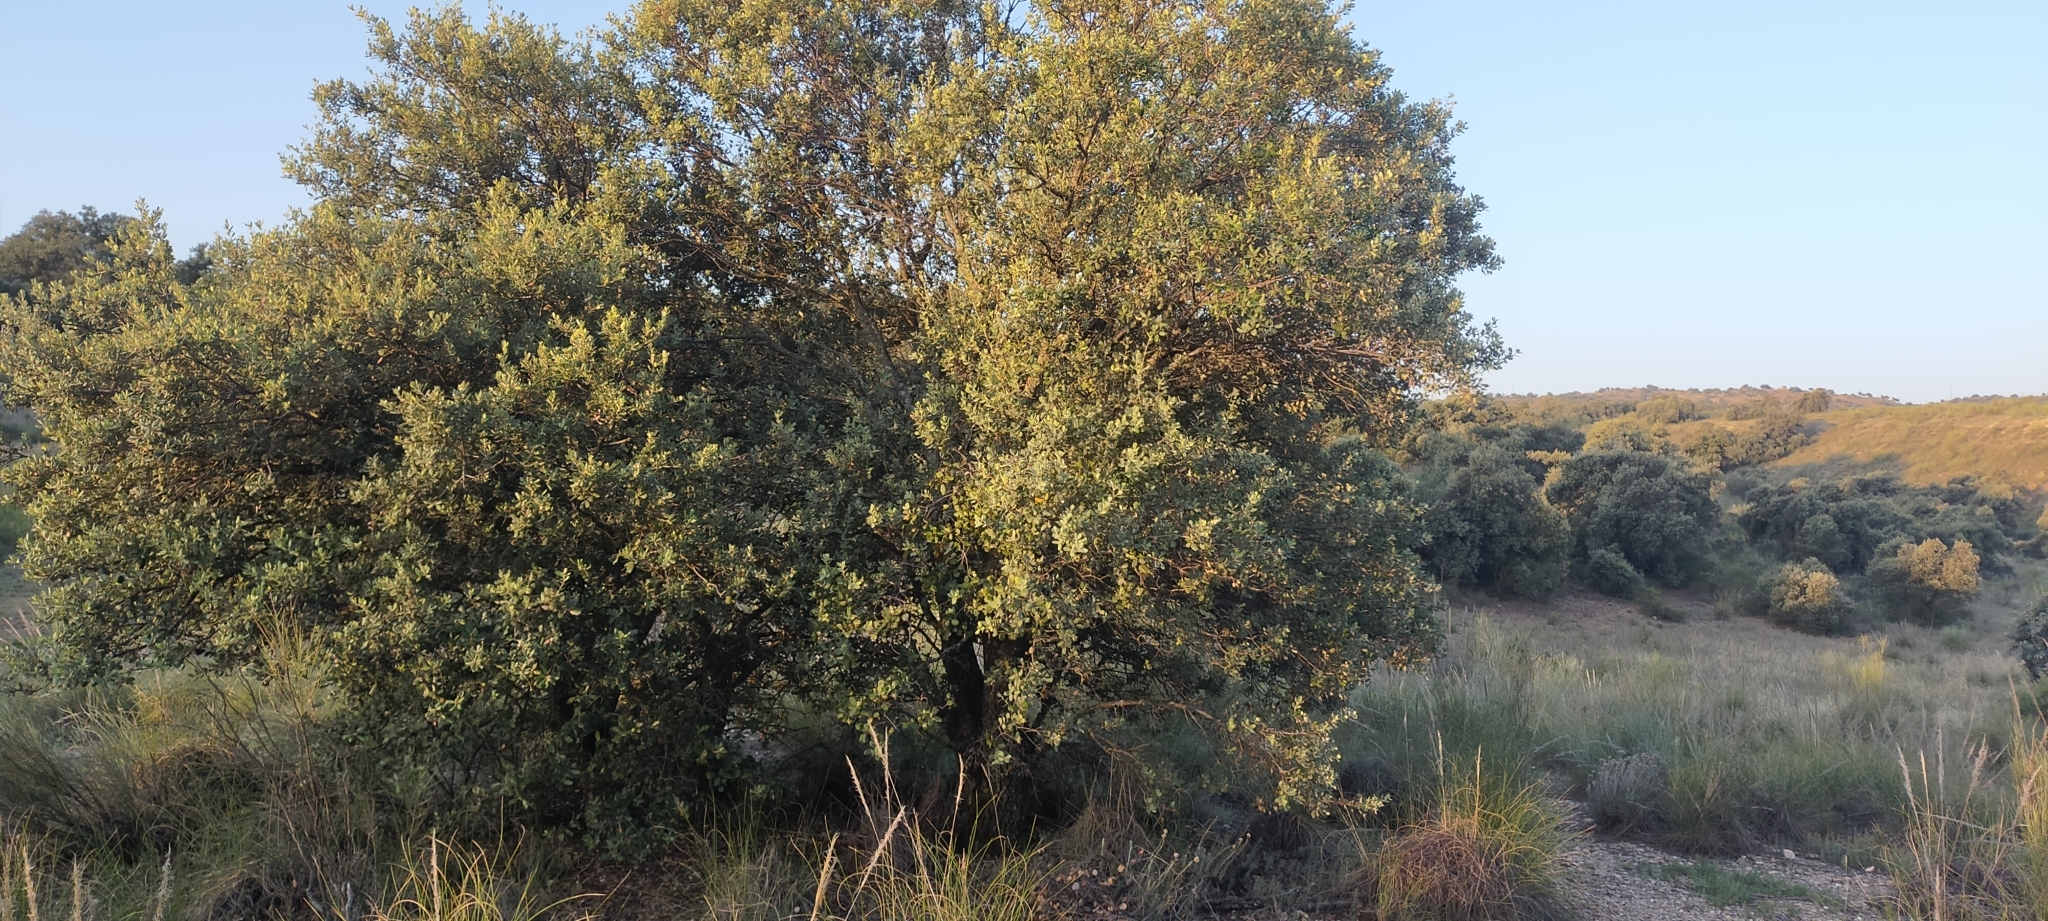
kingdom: Plantae
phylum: Tracheophyta
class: Magnoliopsida
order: Fagales
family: Fagaceae
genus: Quercus
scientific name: Quercus rotundifolia
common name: Holm oak
